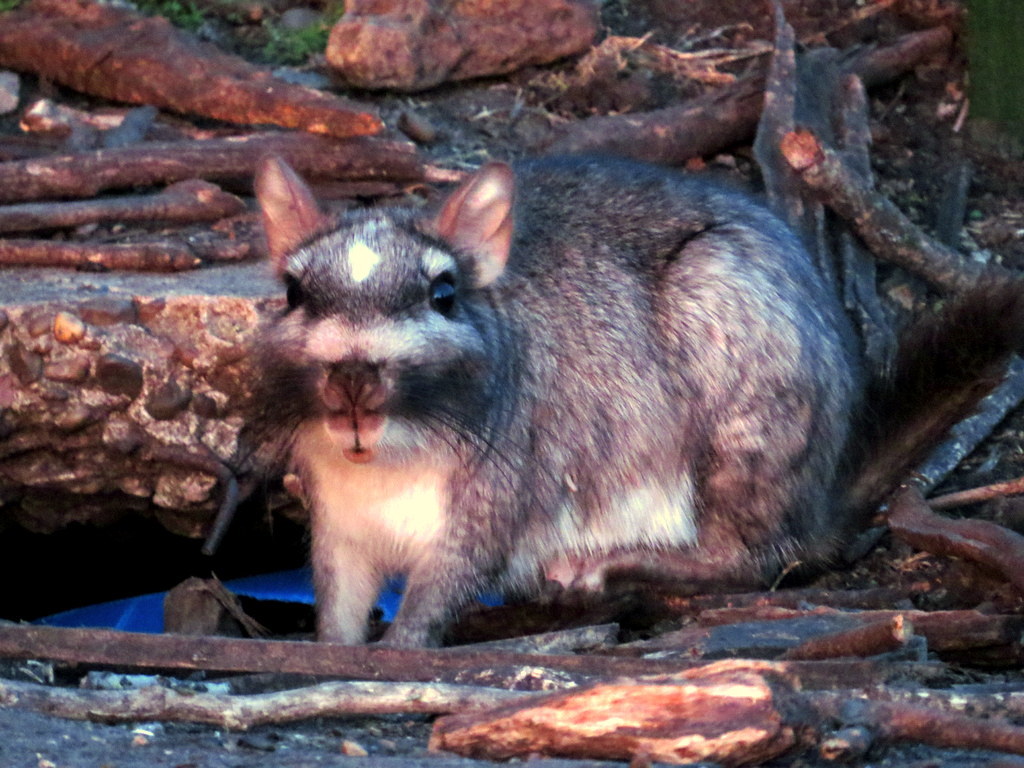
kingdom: Animalia
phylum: Chordata
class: Mammalia
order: Rodentia
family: Chinchillidae
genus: Lagostomus
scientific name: Lagostomus maximus
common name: Plains viscacha
